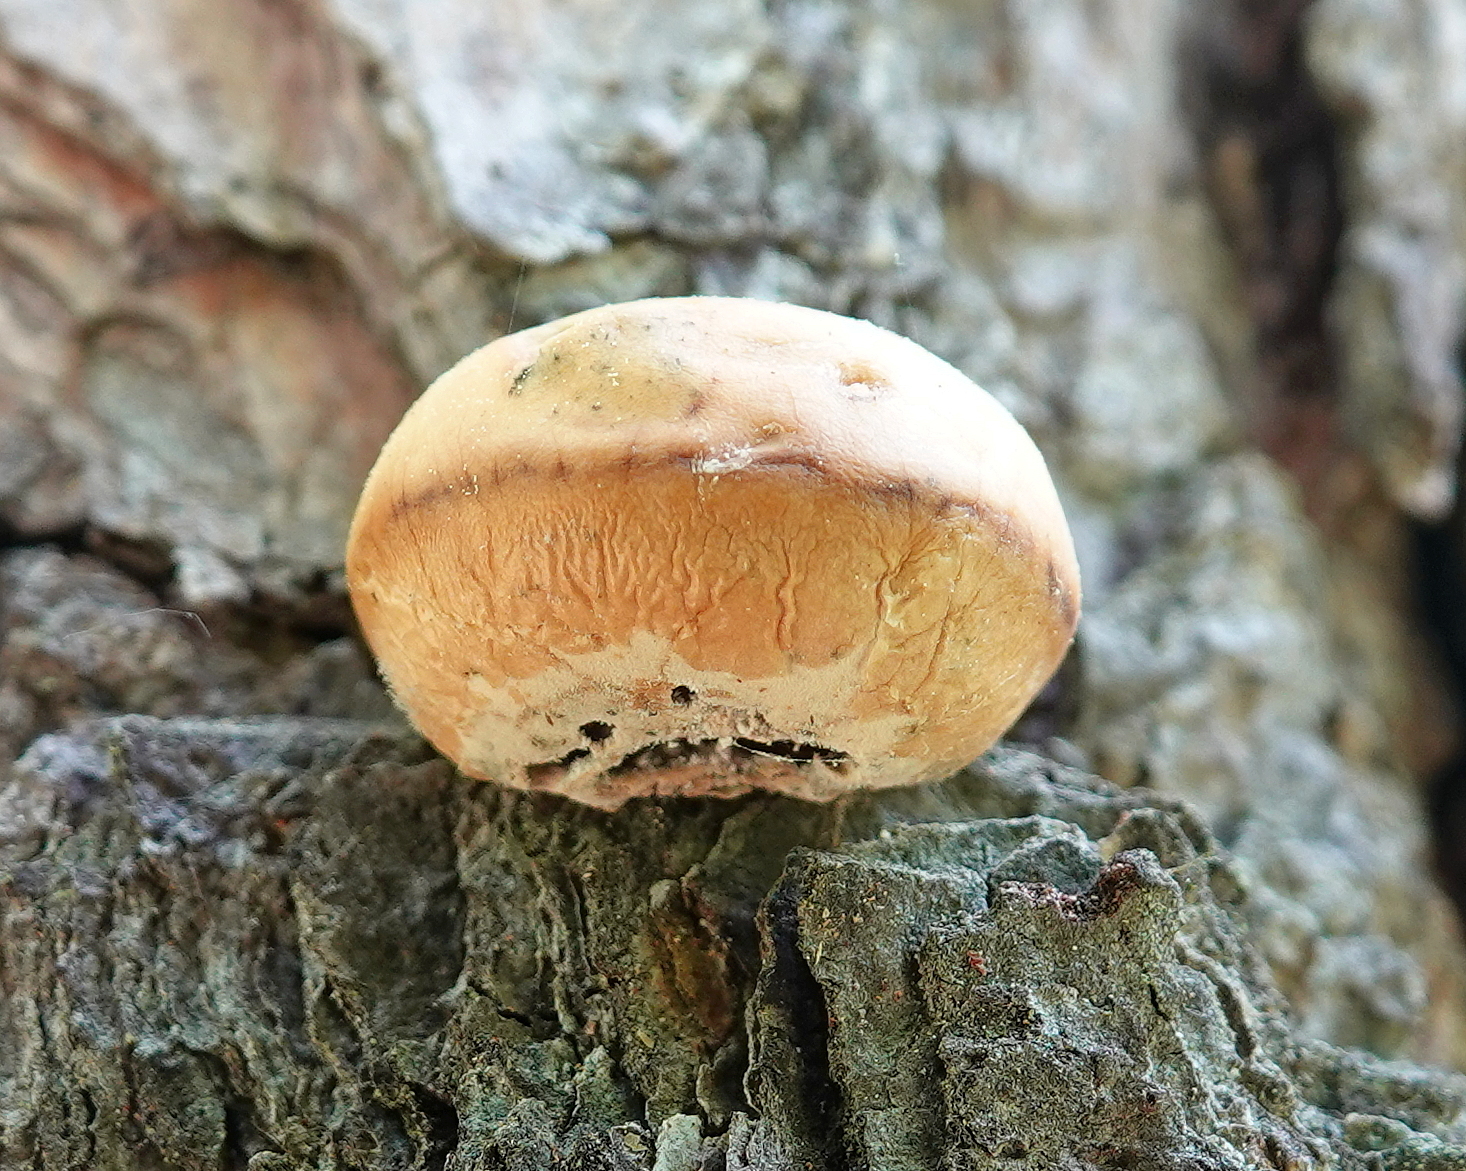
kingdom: Fungi
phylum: Basidiomycota
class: Agaricomycetes
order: Polyporales
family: Polyporaceae
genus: Cryptoporus
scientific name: Cryptoporus volvatus
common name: Veiled polypore
